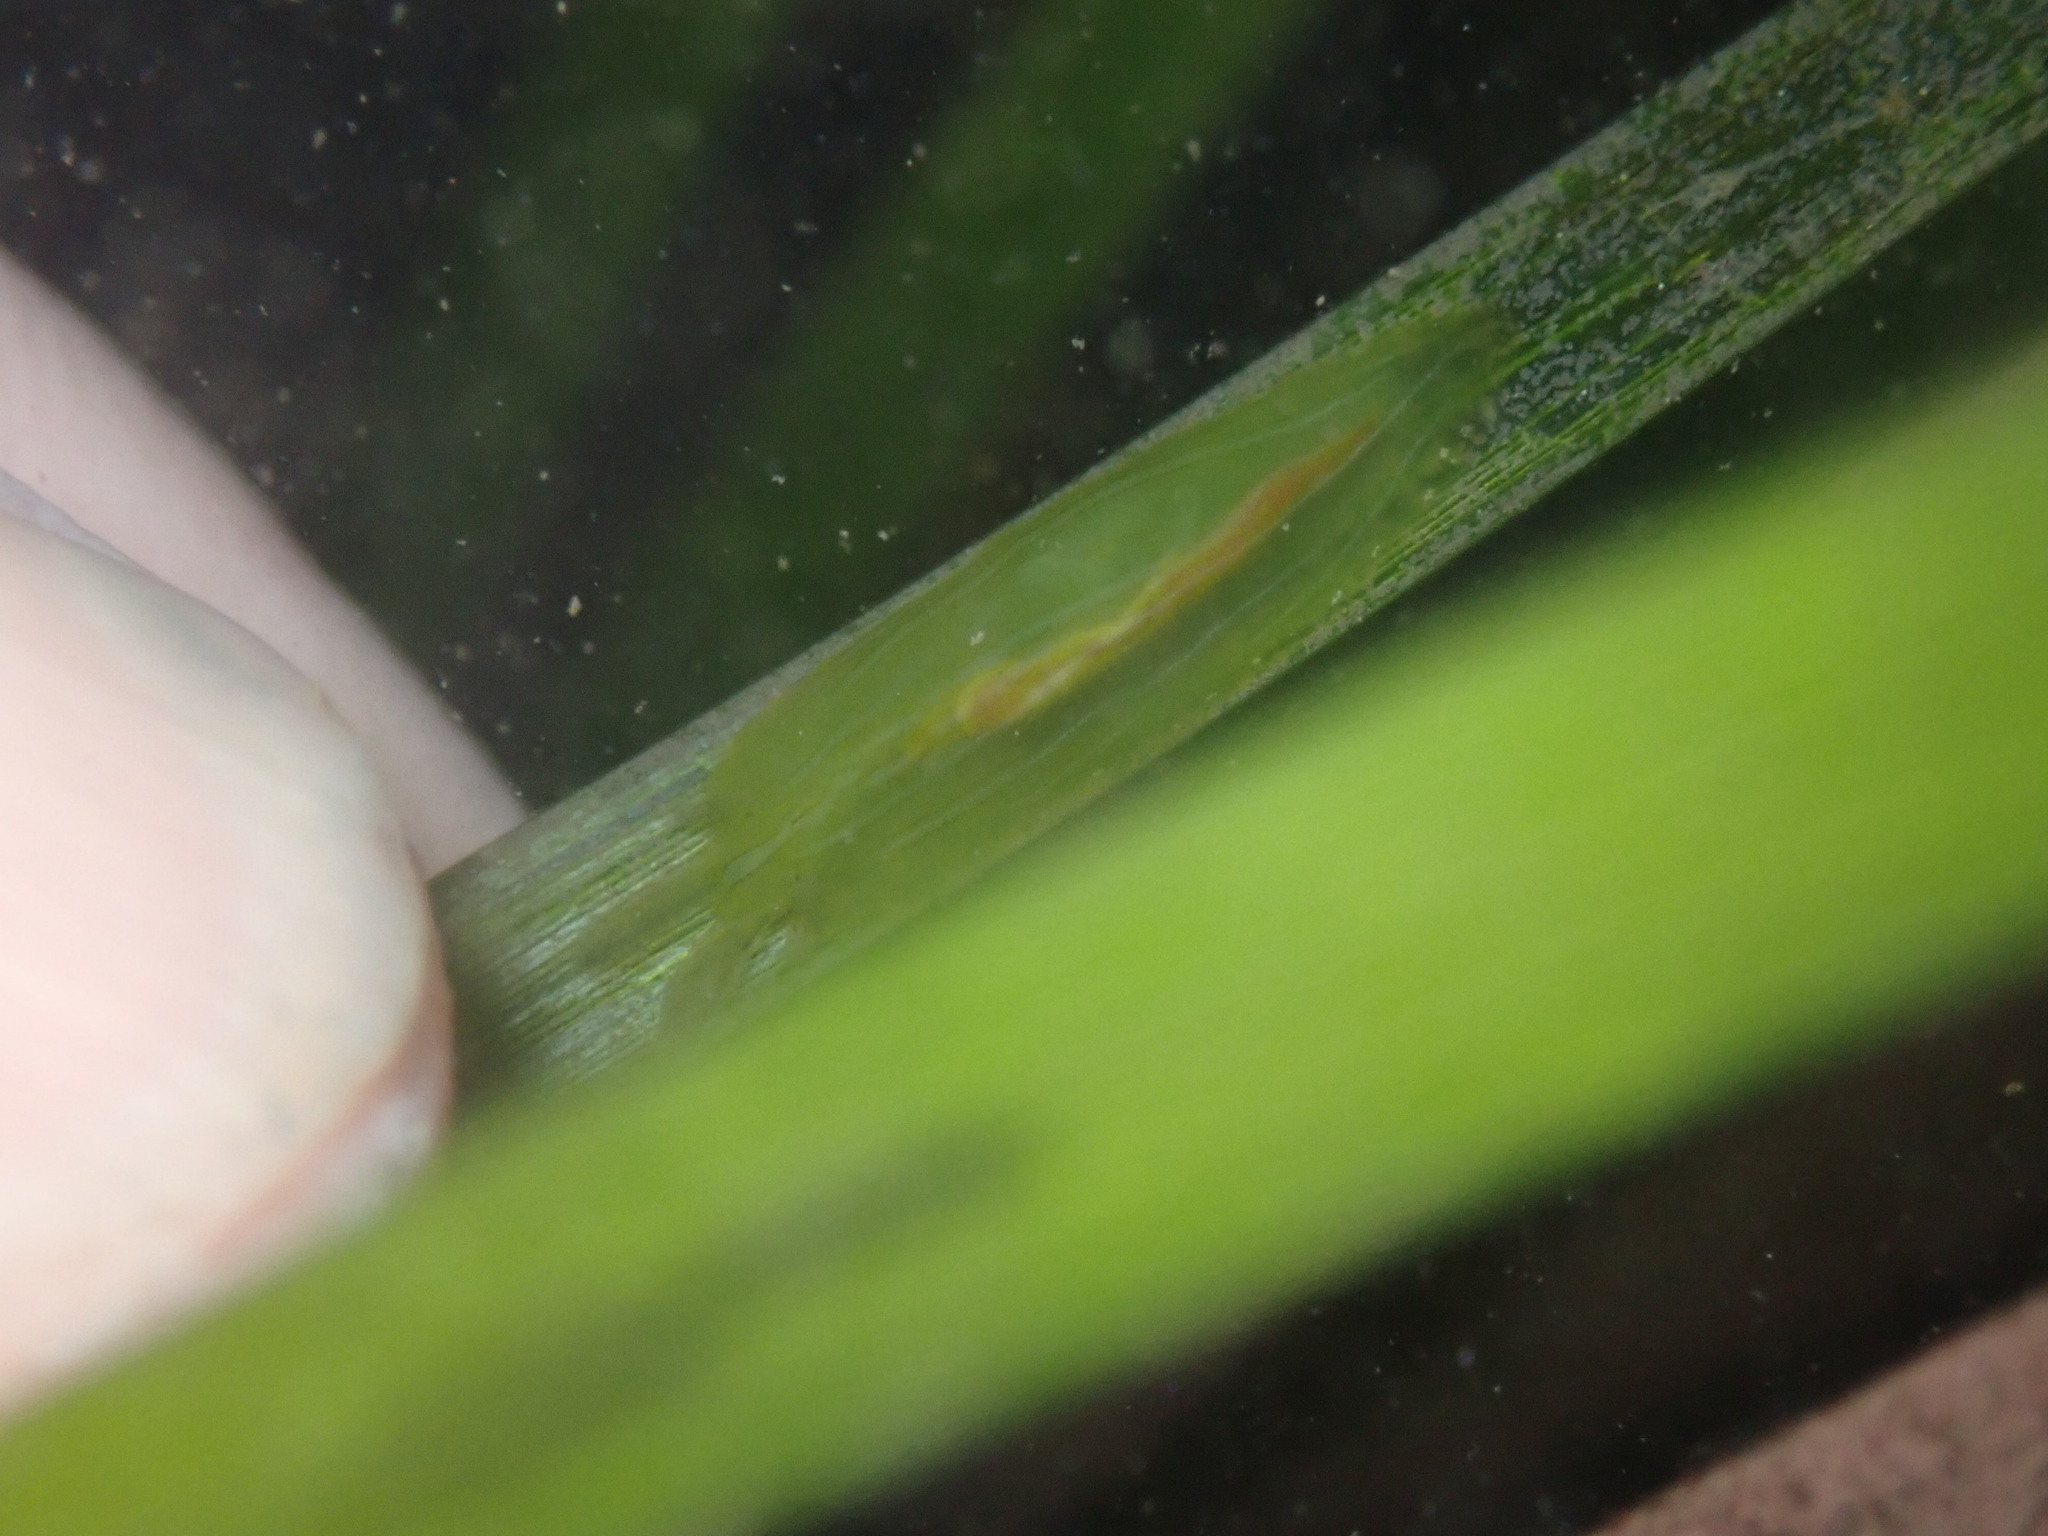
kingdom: Animalia
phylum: Mollusca
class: Gastropoda
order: Aplysiida
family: Aplysiidae
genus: Phyllaplysia
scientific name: Phyllaplysia taylori
